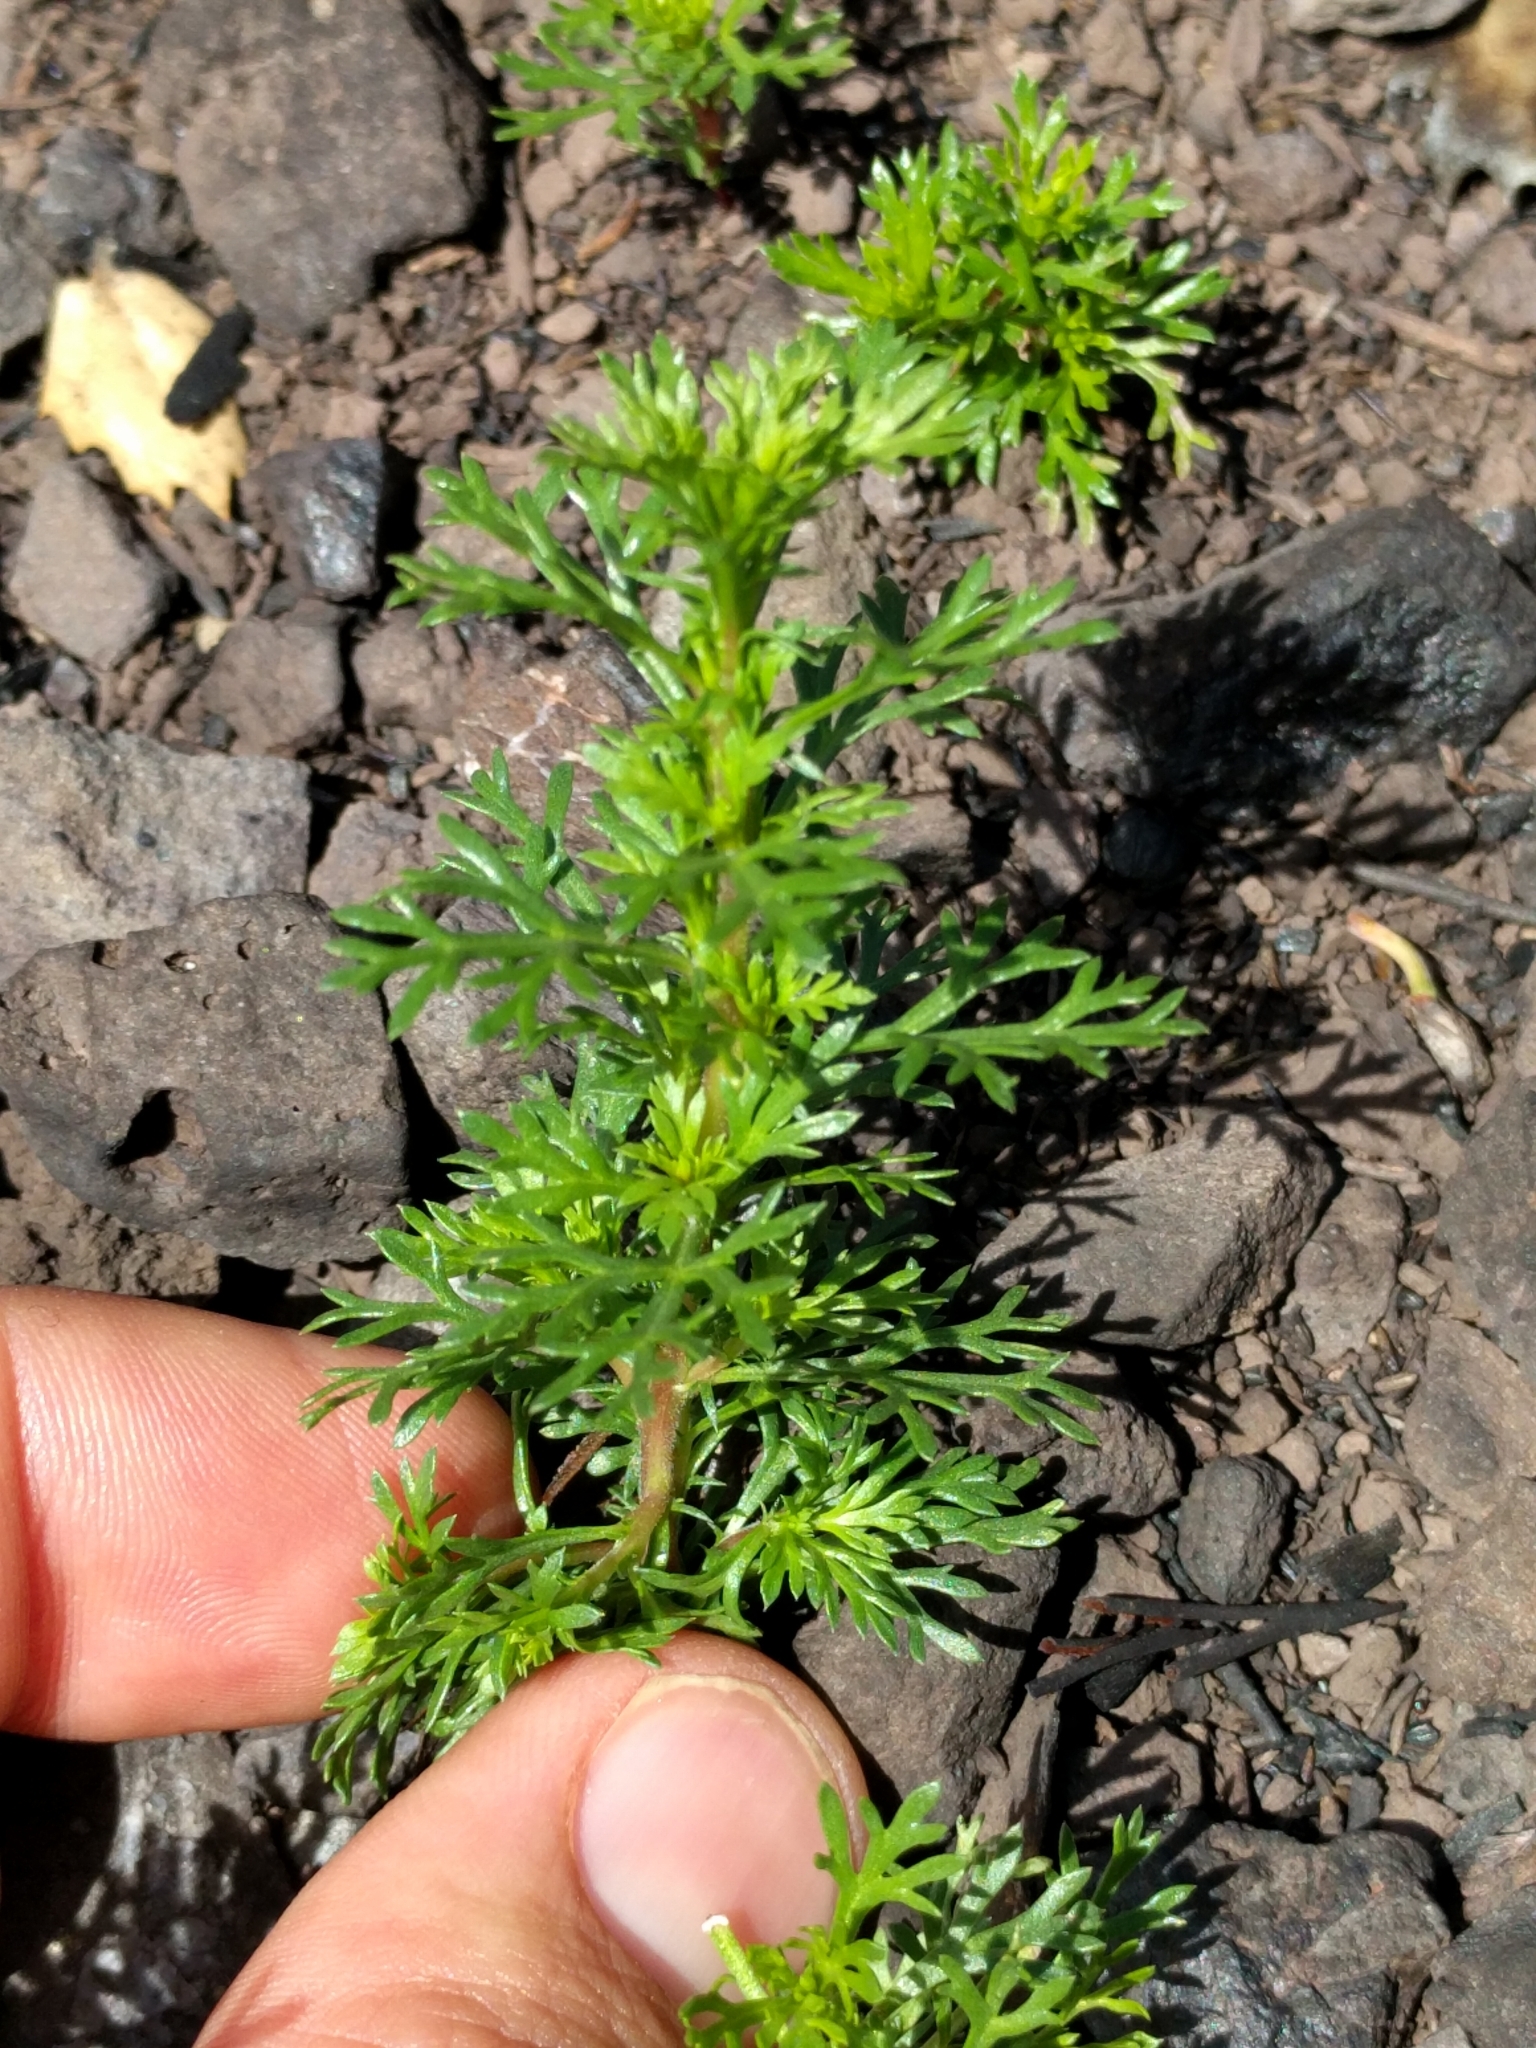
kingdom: Plantae
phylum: Tracheophyta
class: Magnoliopsida
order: Rosales
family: Rosaceae
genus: Adenostoma
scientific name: Adenostoma fasciculatum
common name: Chamise
